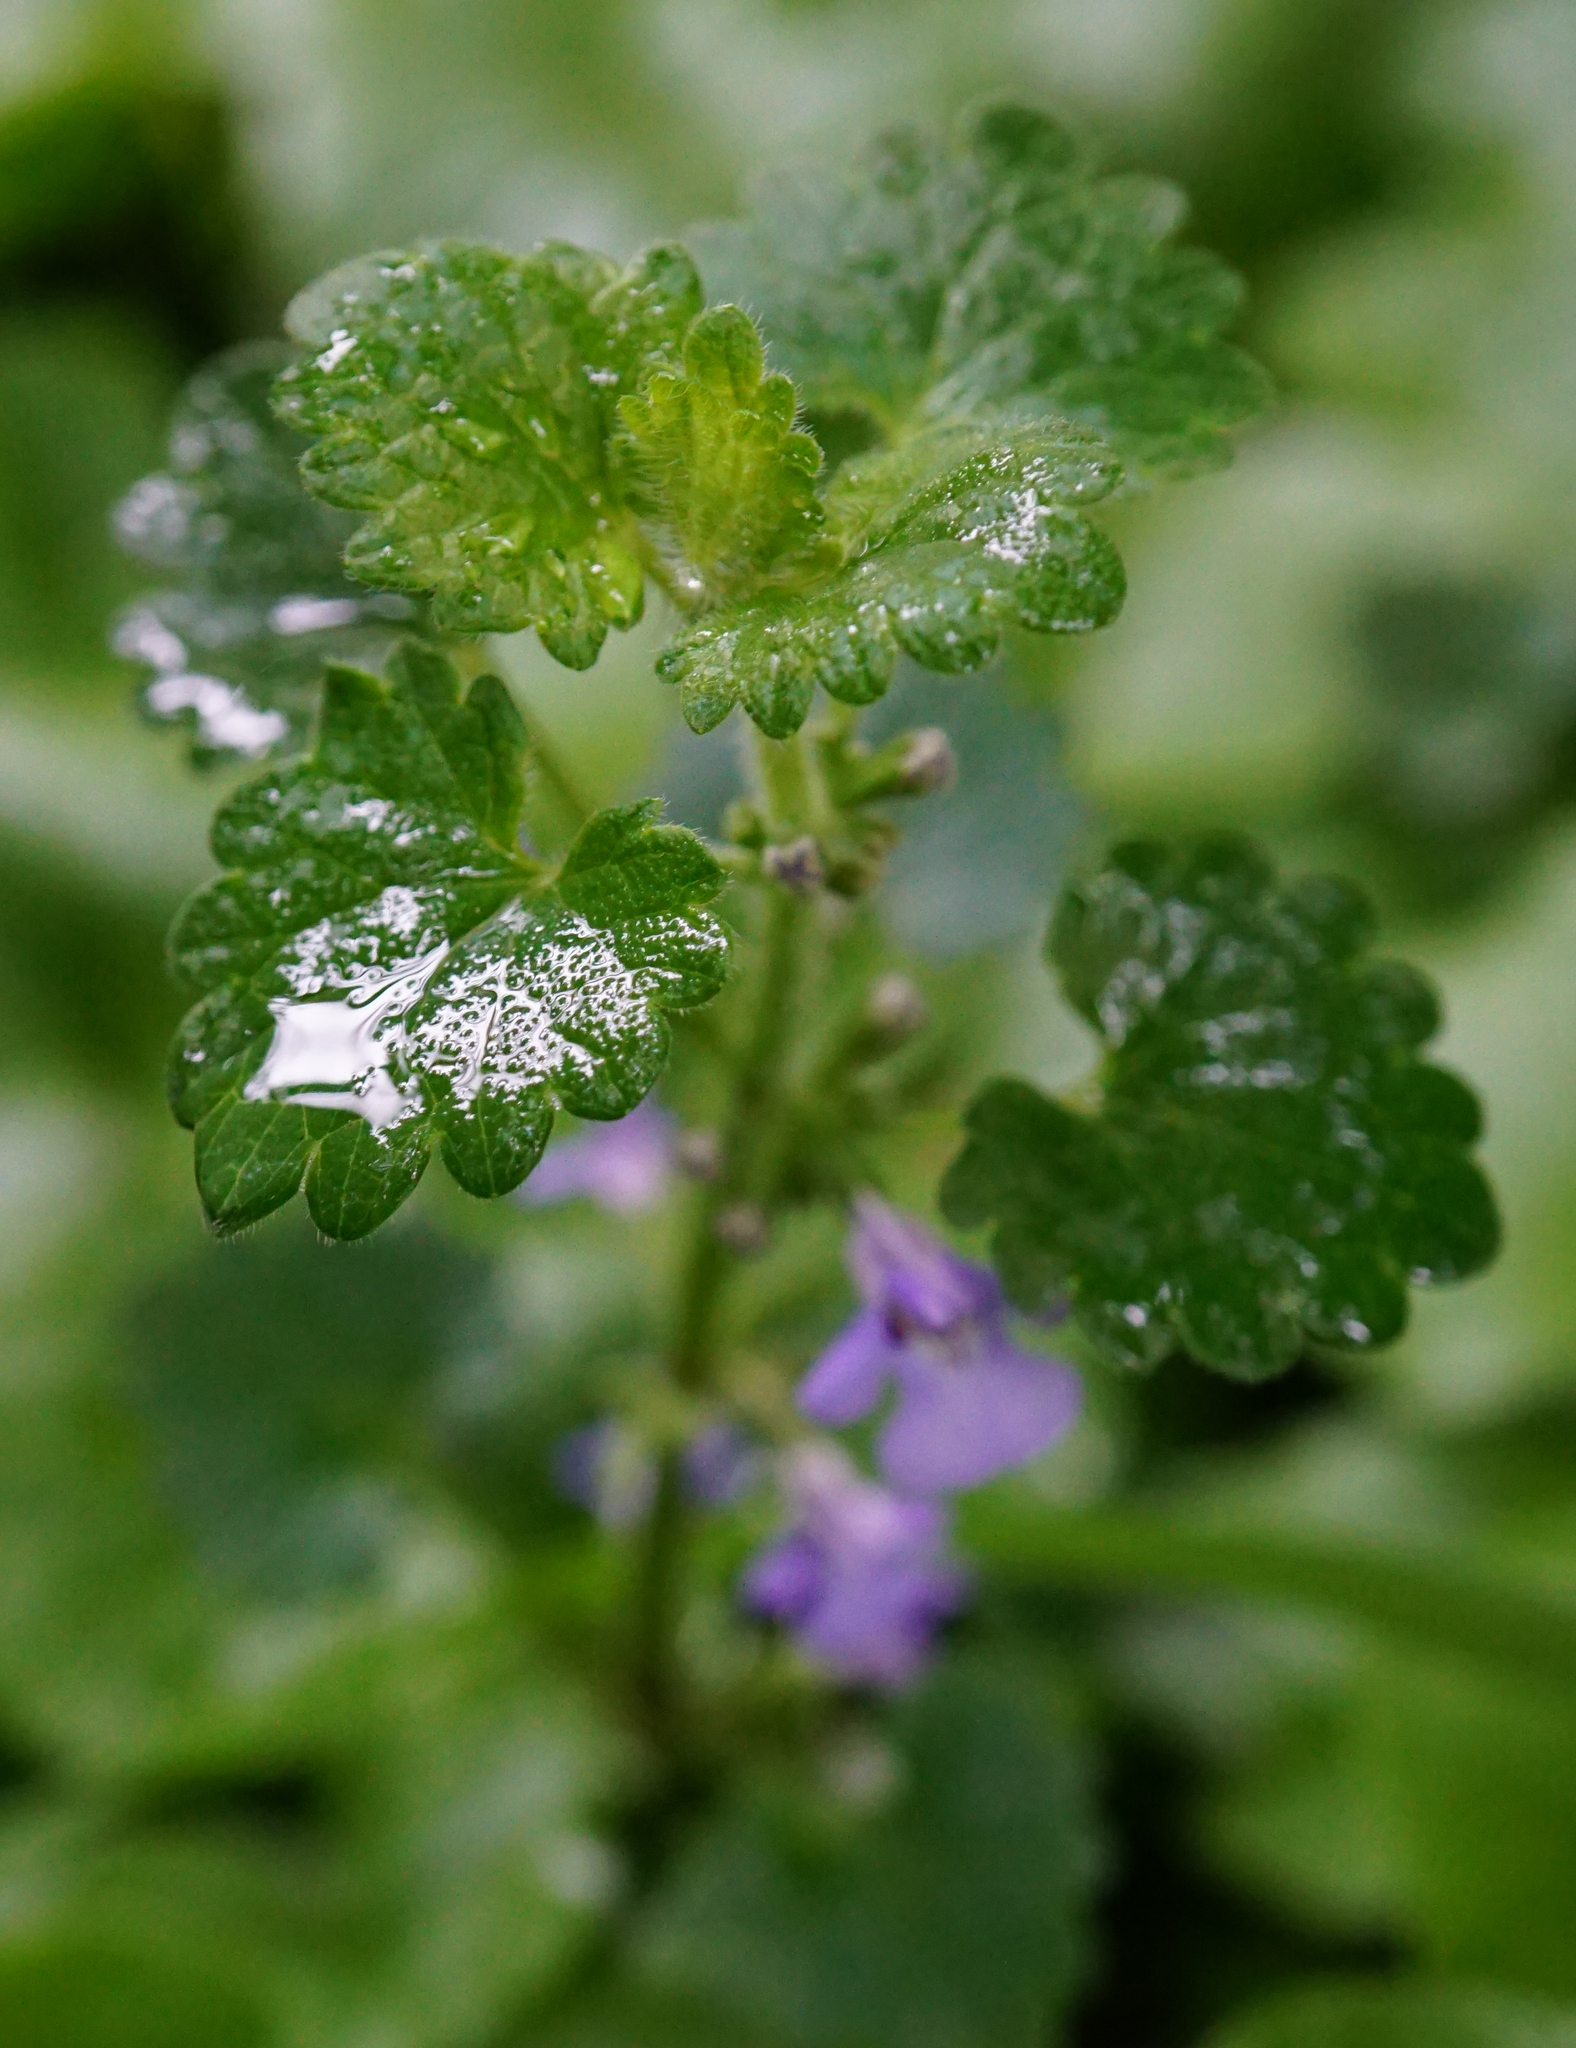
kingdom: Plantae
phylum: Tracheophyta
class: Magnoliopsida
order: Lamiales
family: Lamiaceae
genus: Glechoma
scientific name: Glechoma hederacea
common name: Ground ivy
